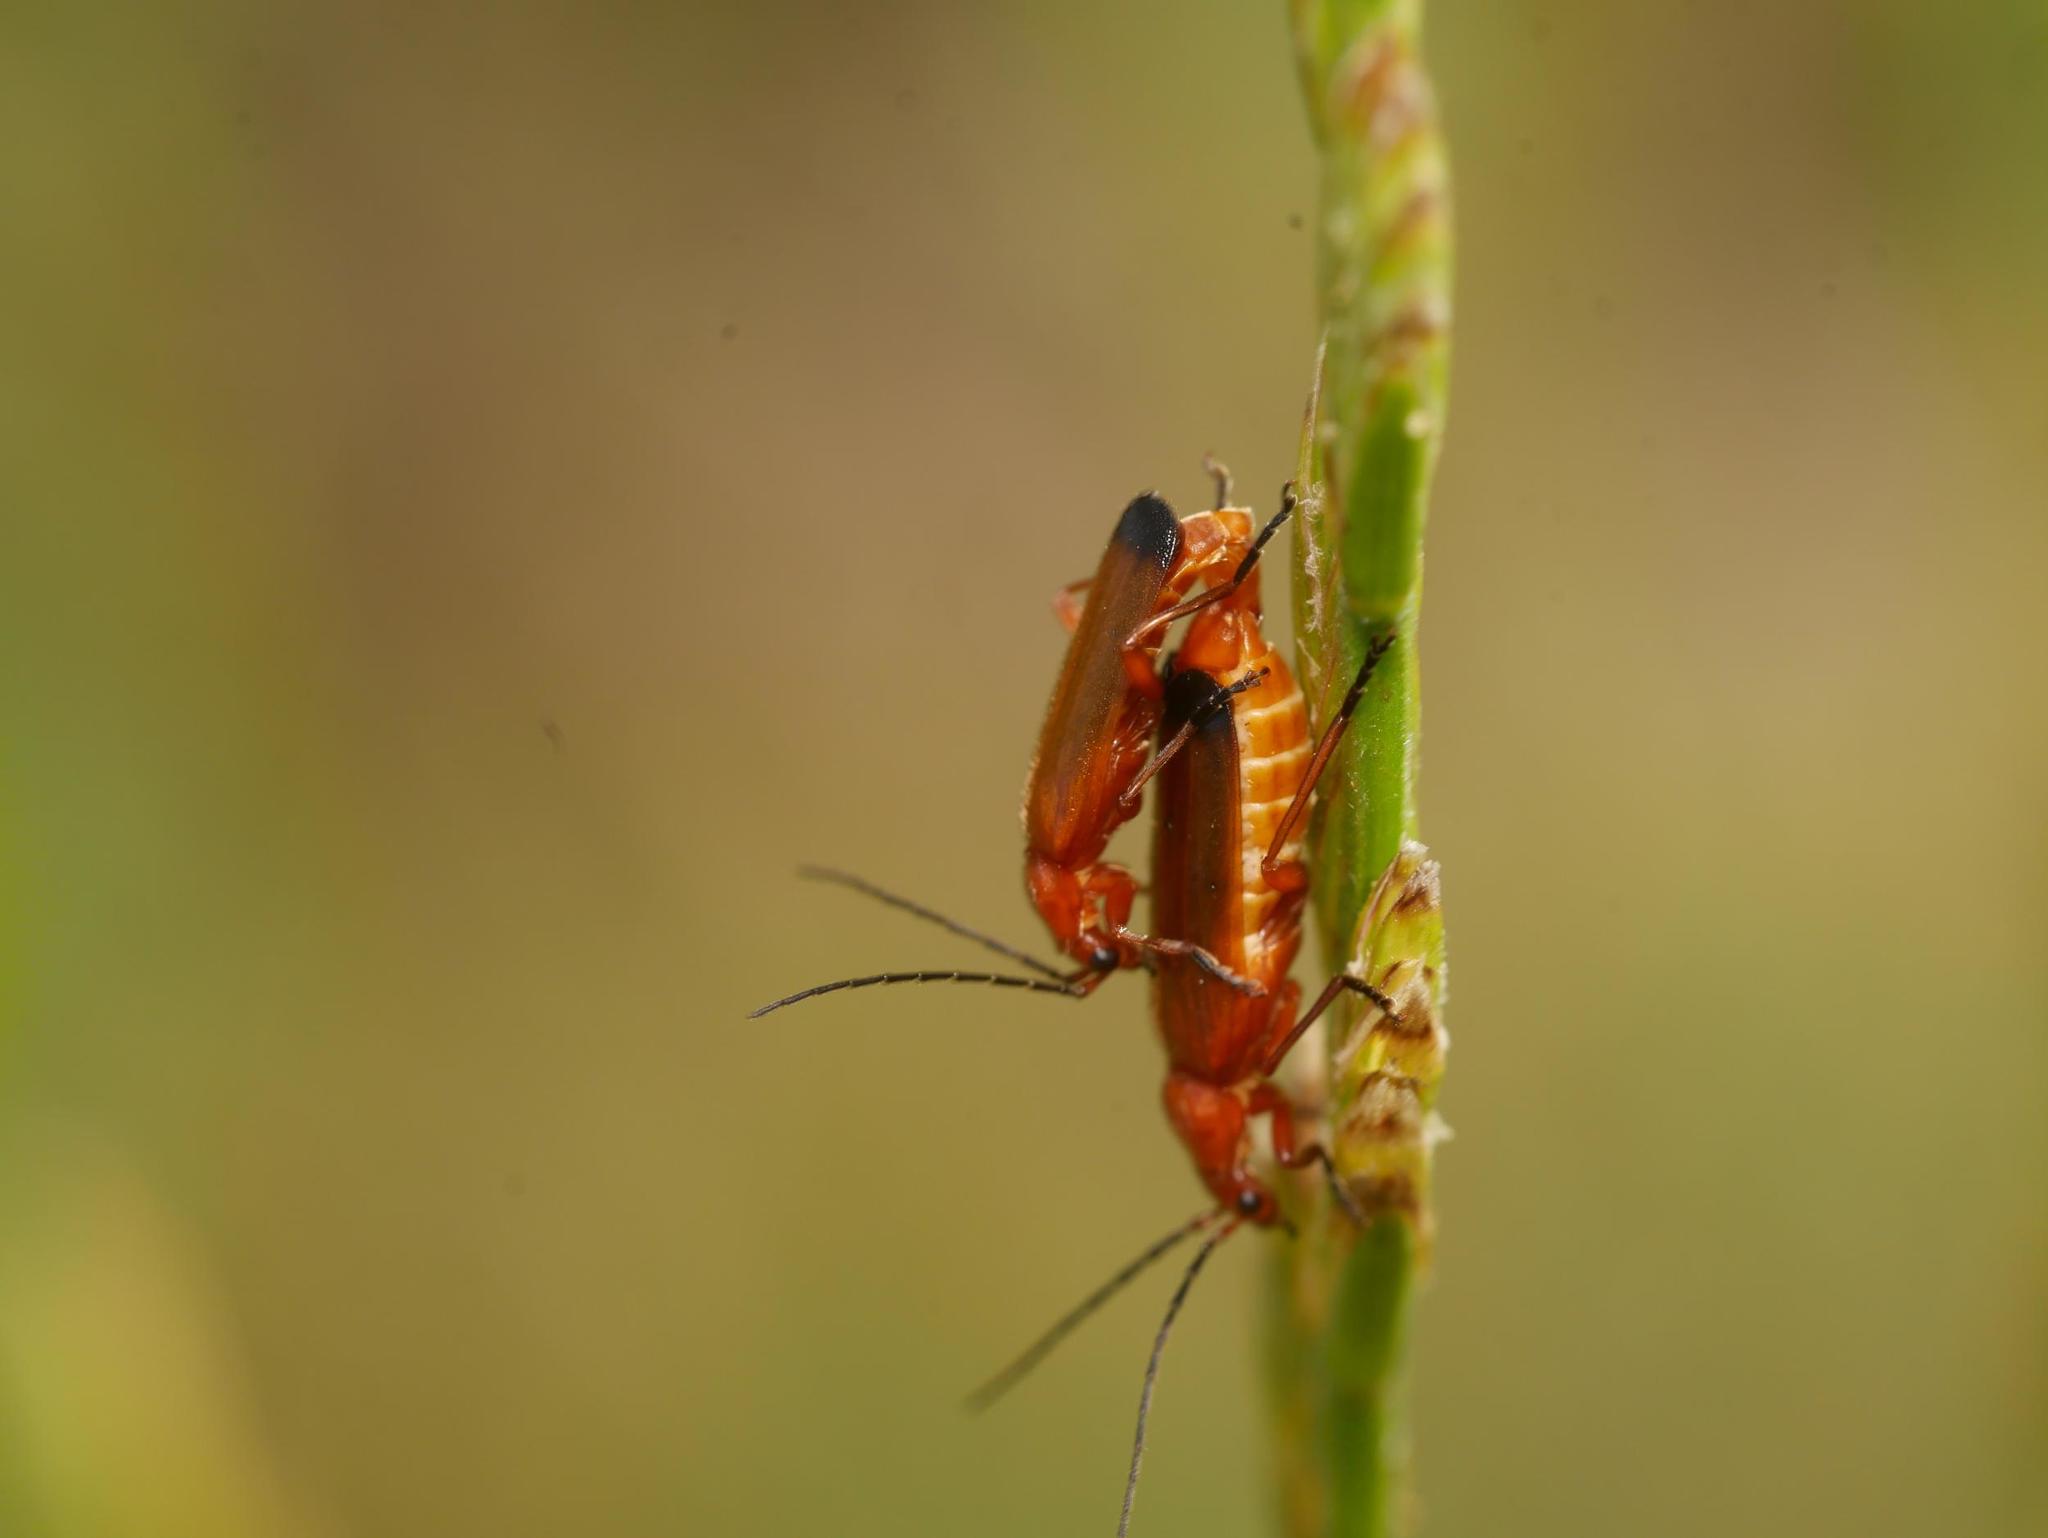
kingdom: Animalia
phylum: Arthropoda
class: Insecta
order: Coleoptera
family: Cantharidae
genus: Rhagonycha
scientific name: Rhagonycha fulva
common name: Common red soldier beetle
